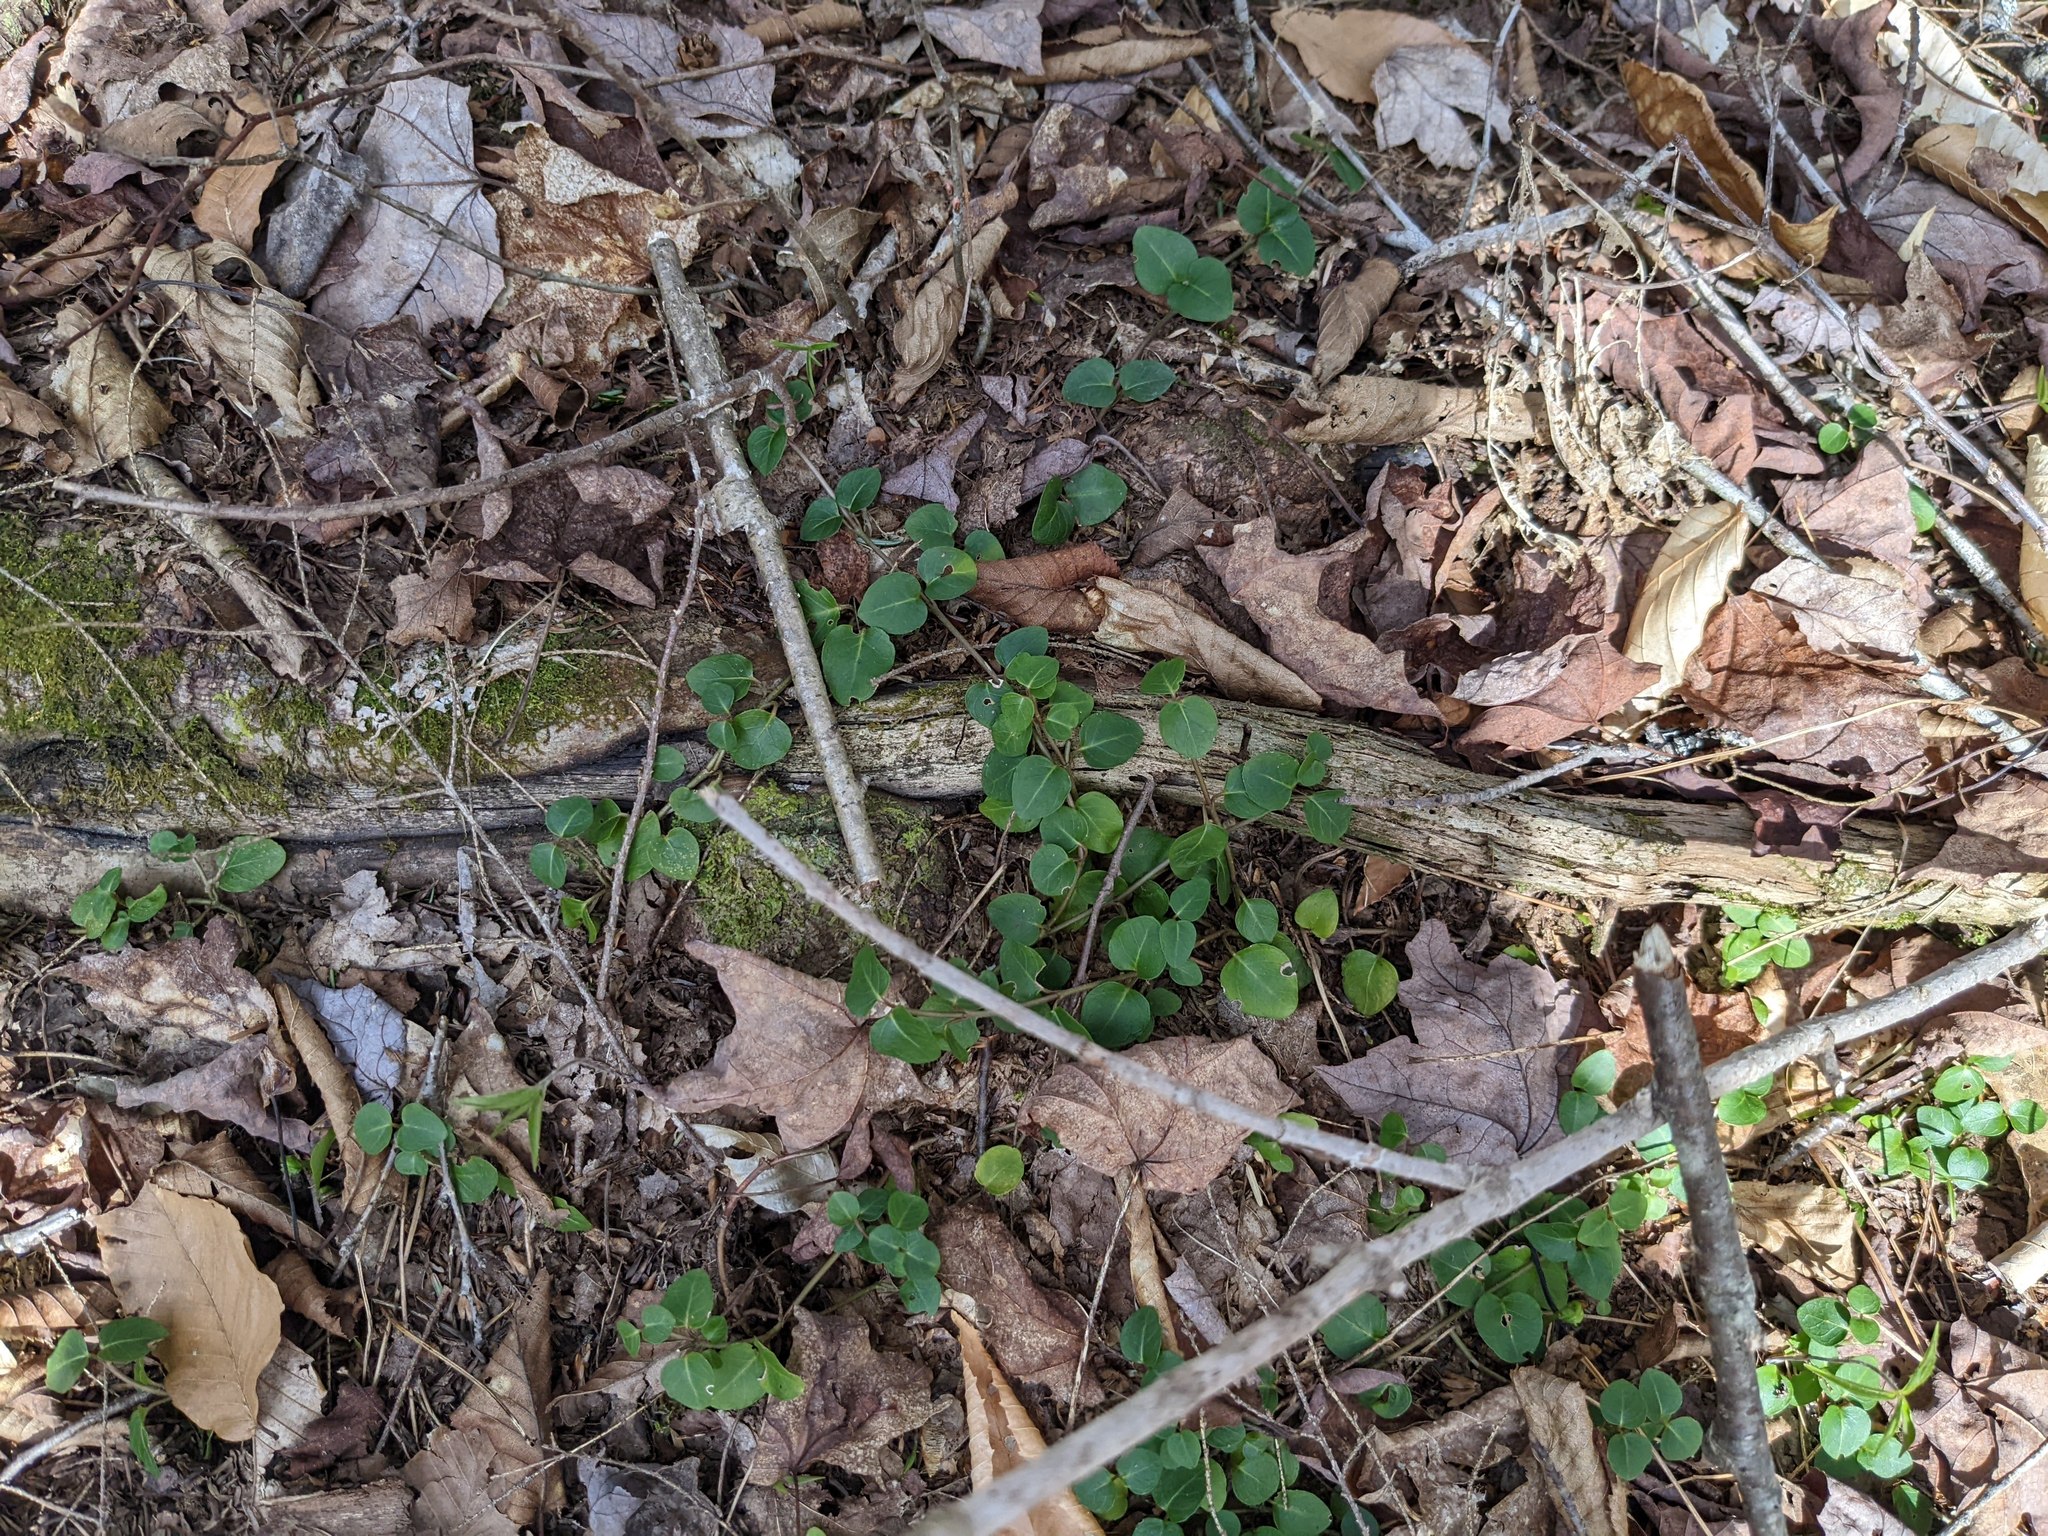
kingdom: Plantae
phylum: Tracheophyta
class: Magnoliopsida
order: Gentianales
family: Rubiaceae
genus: Mitchella
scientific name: Mitchella repens
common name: Partridge-berry
